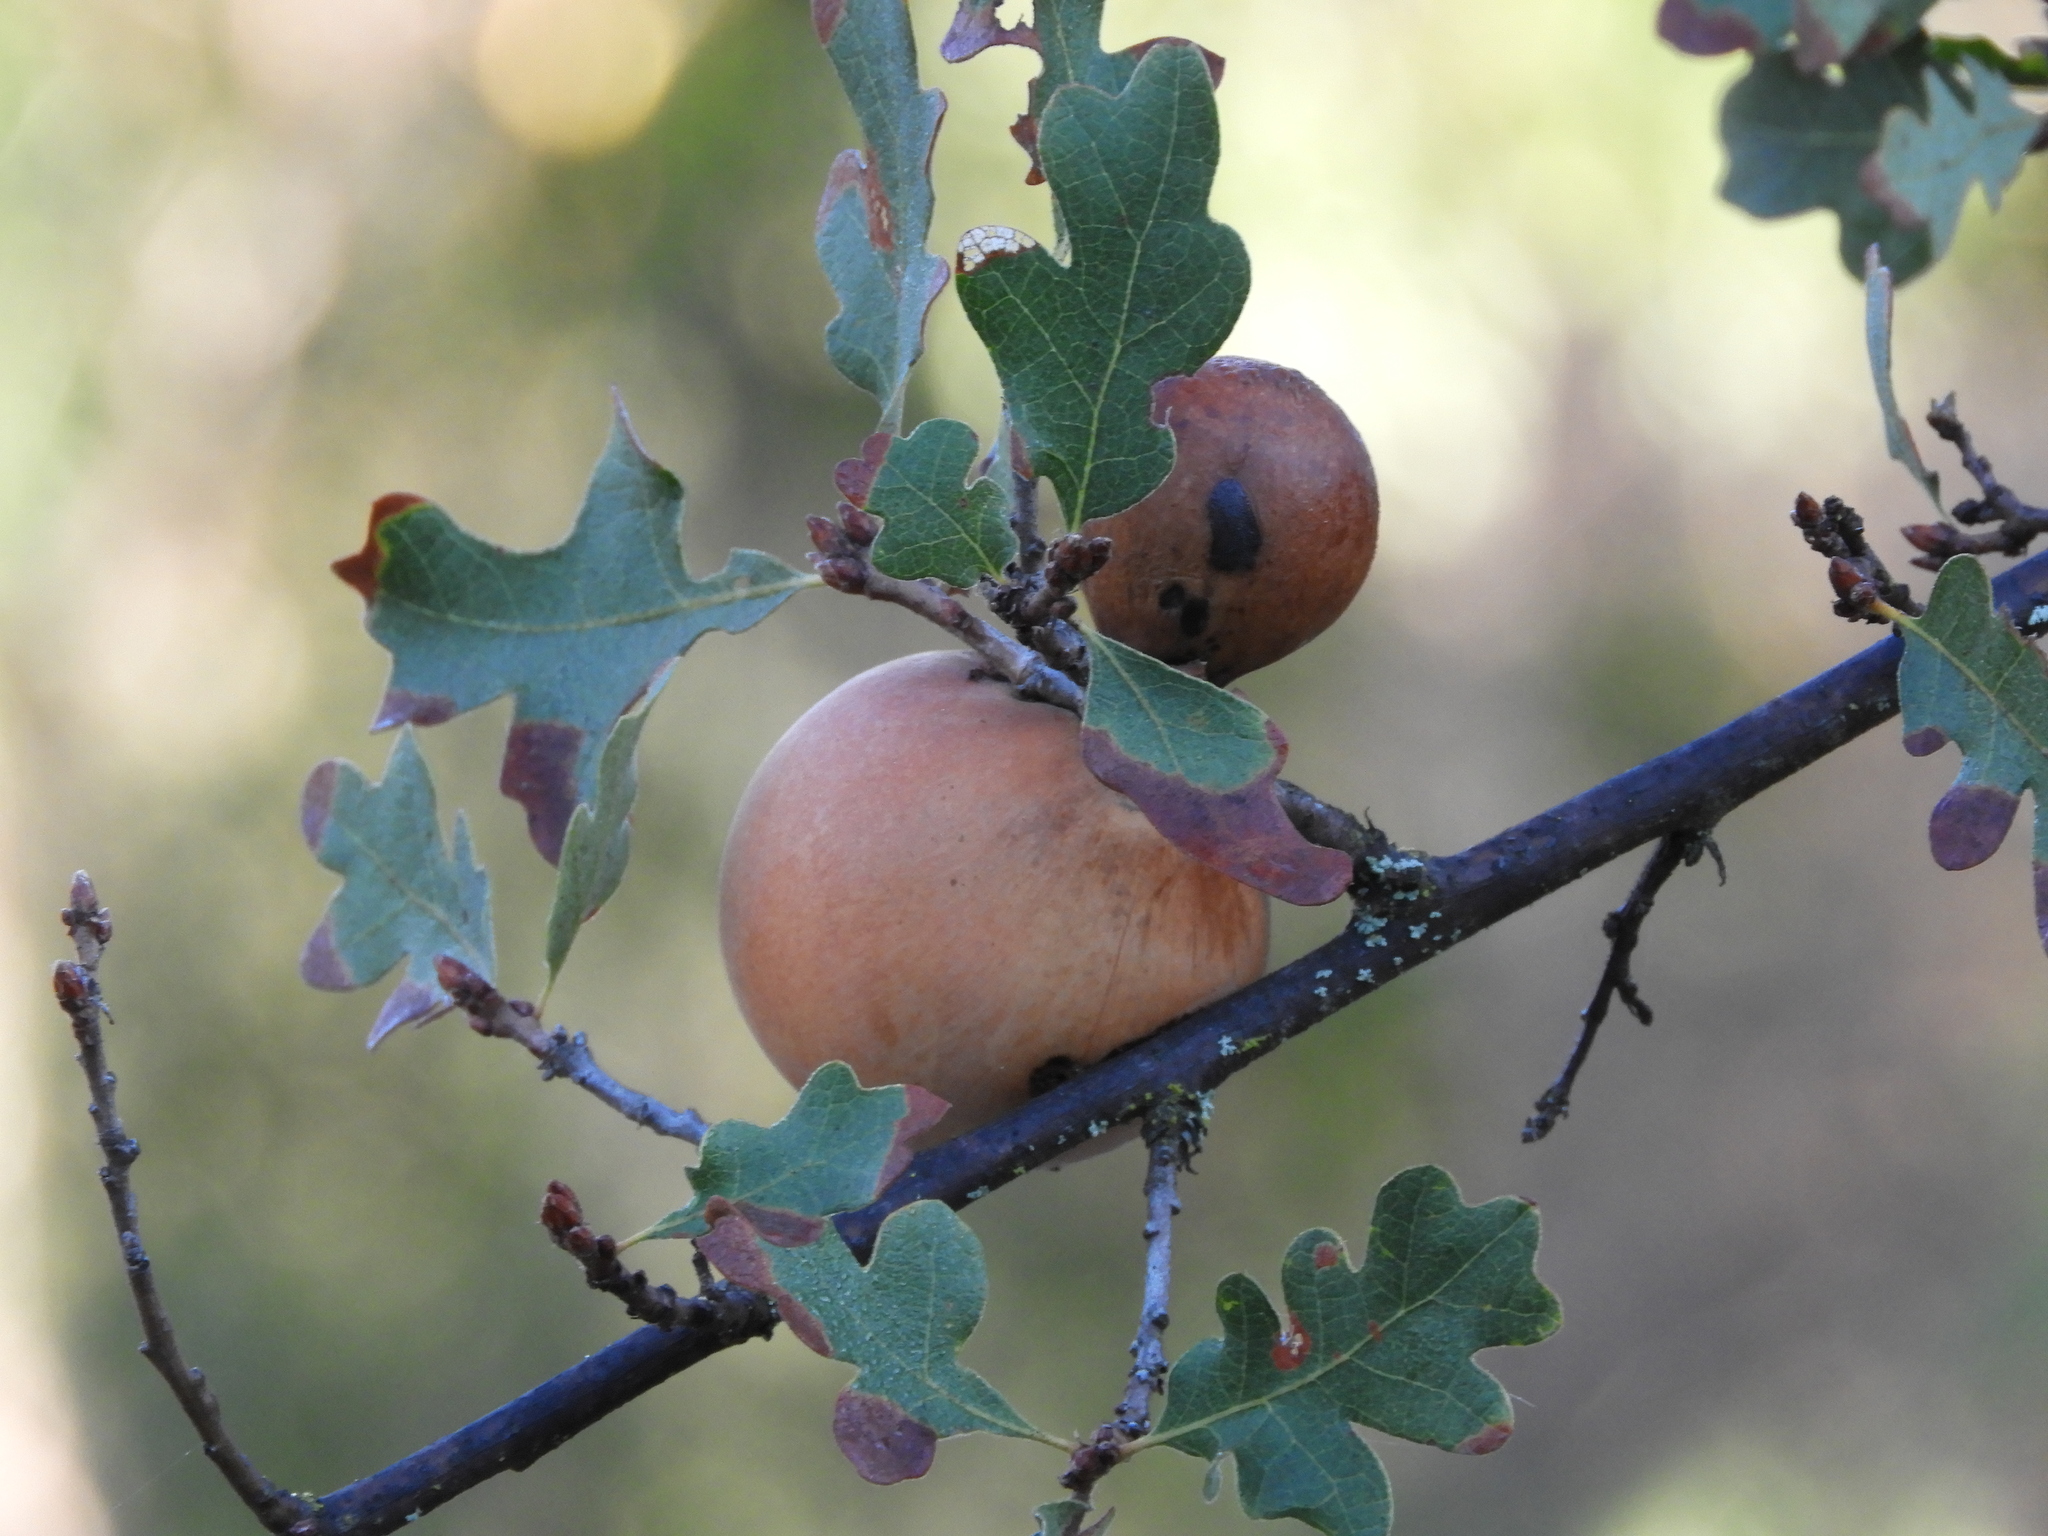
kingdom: Animalia
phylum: Arthropoda
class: Insecta
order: Hymenoptera
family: Cynipidae
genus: Andricus
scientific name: Andricus quercuscalifornicus
